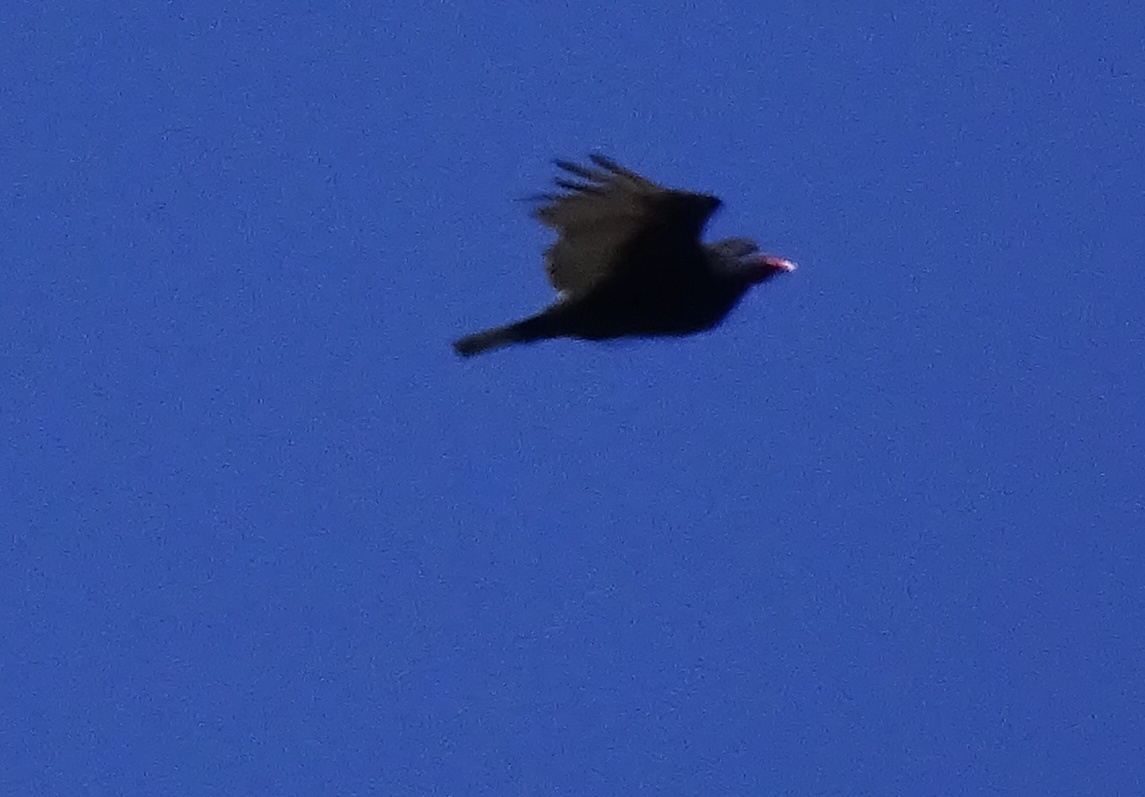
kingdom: Animalia
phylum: Chordata
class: Aves
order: Accipitriformes
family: Cathartidae
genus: Cathartes
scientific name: Cathartes aura
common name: Turkey vulture
